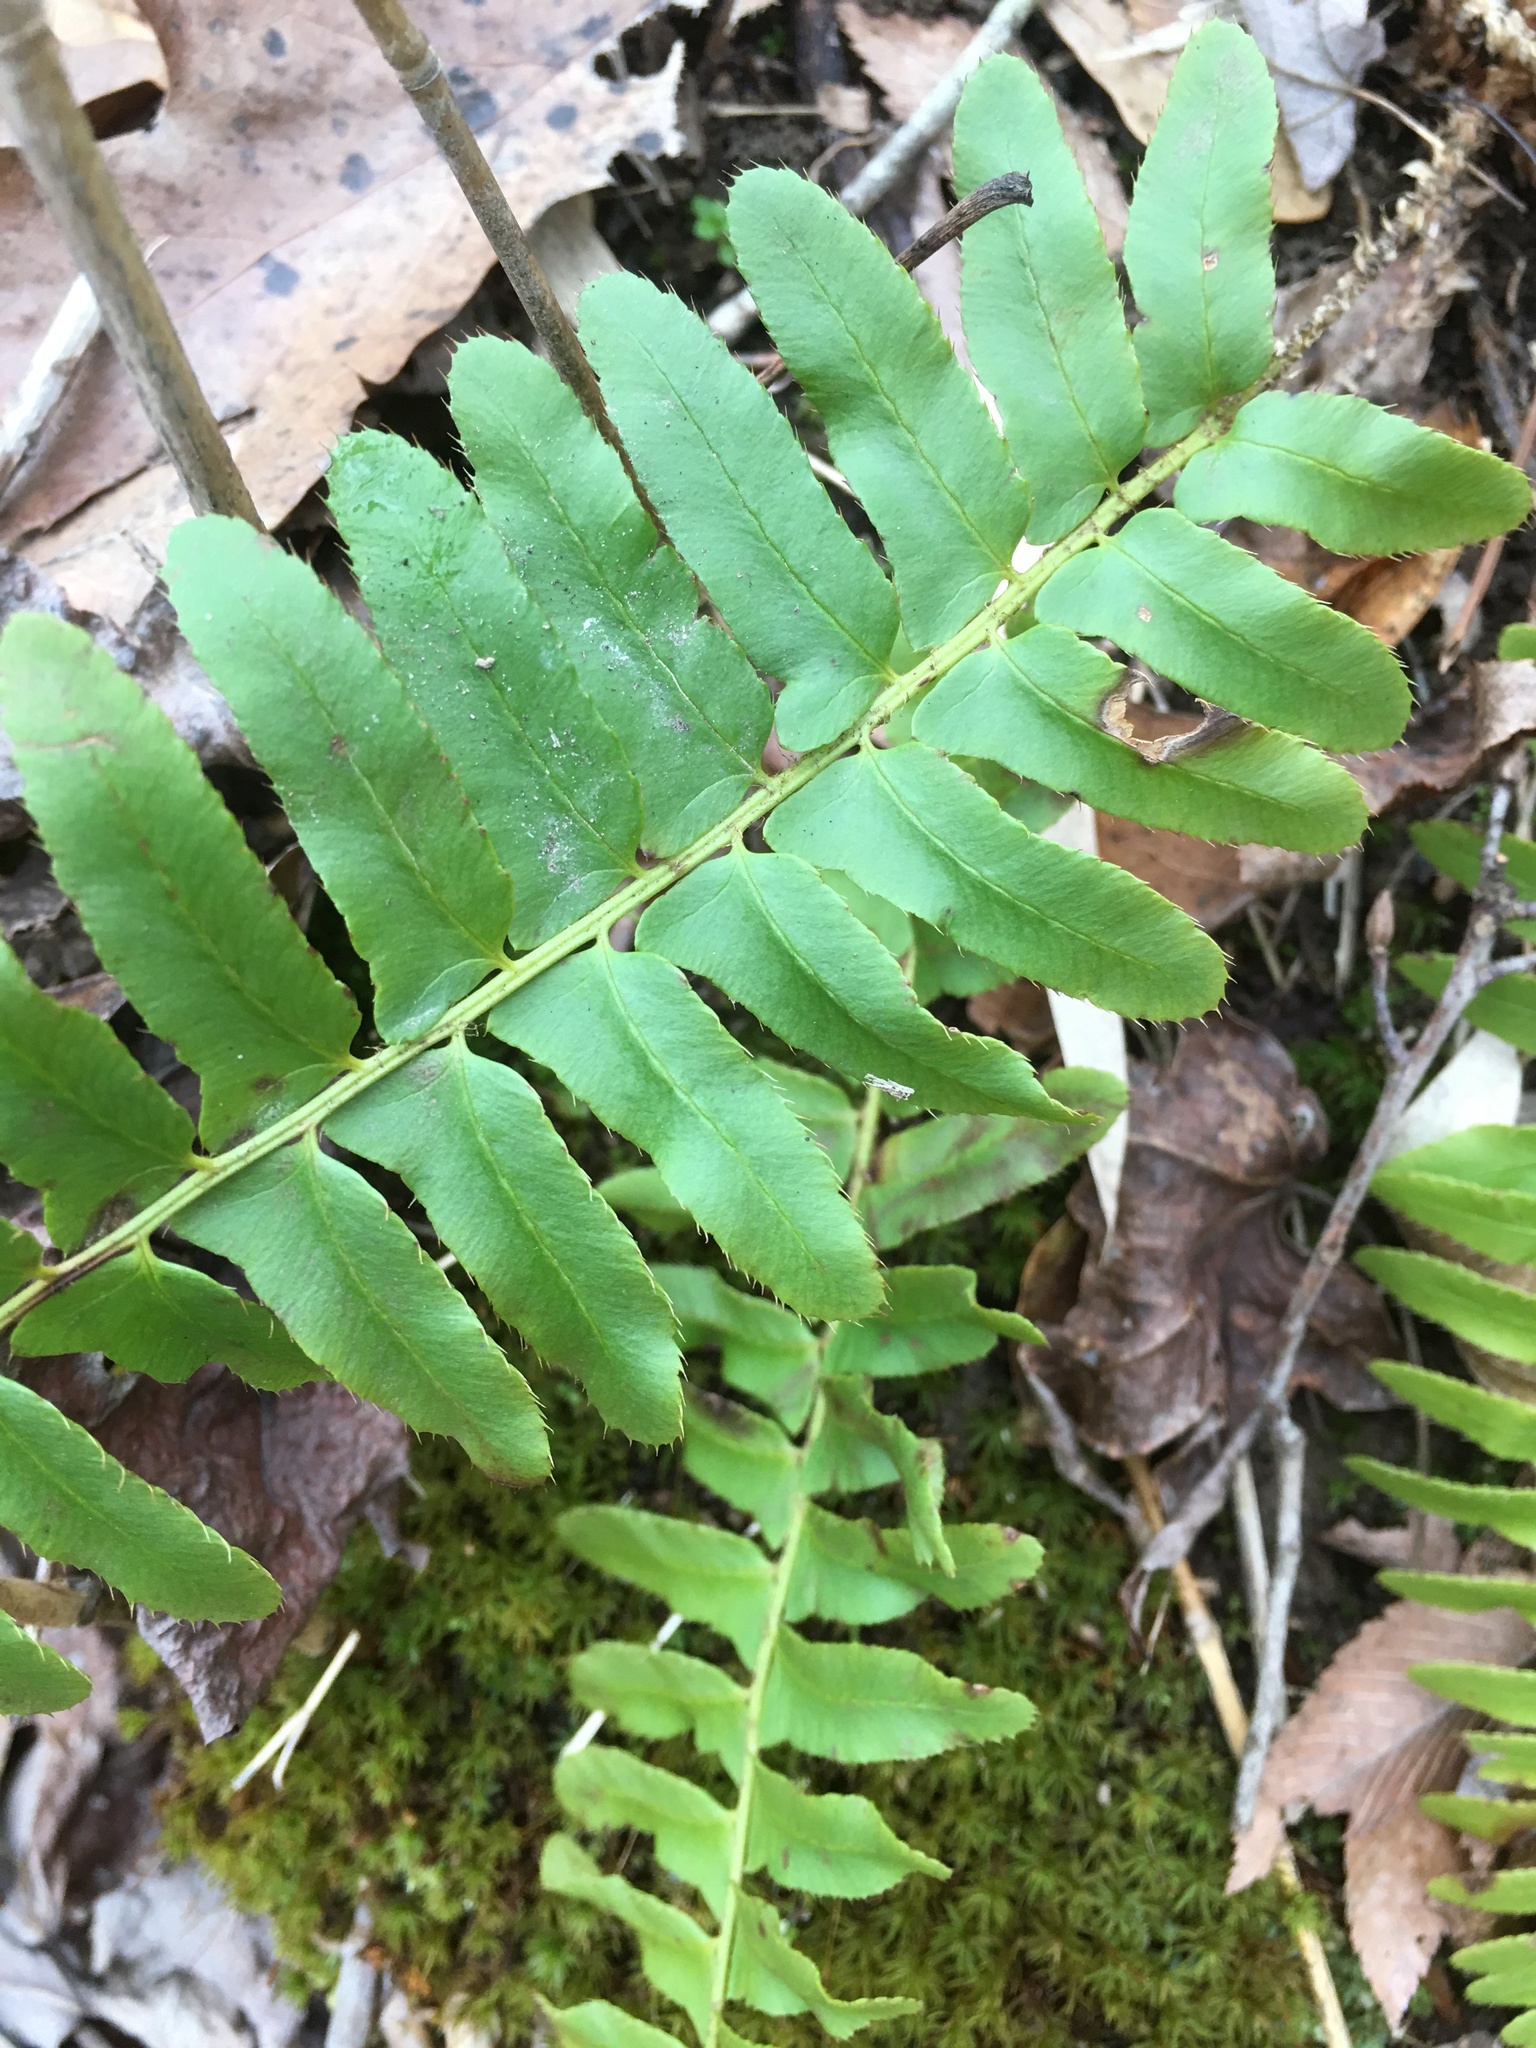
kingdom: Plantae
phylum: Tracheophyta
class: Polypodiopsida
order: Polypodiales
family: Dryopteridaceae
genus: Polystichum
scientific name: Polystichum acrostichoides
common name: Christmas fern
